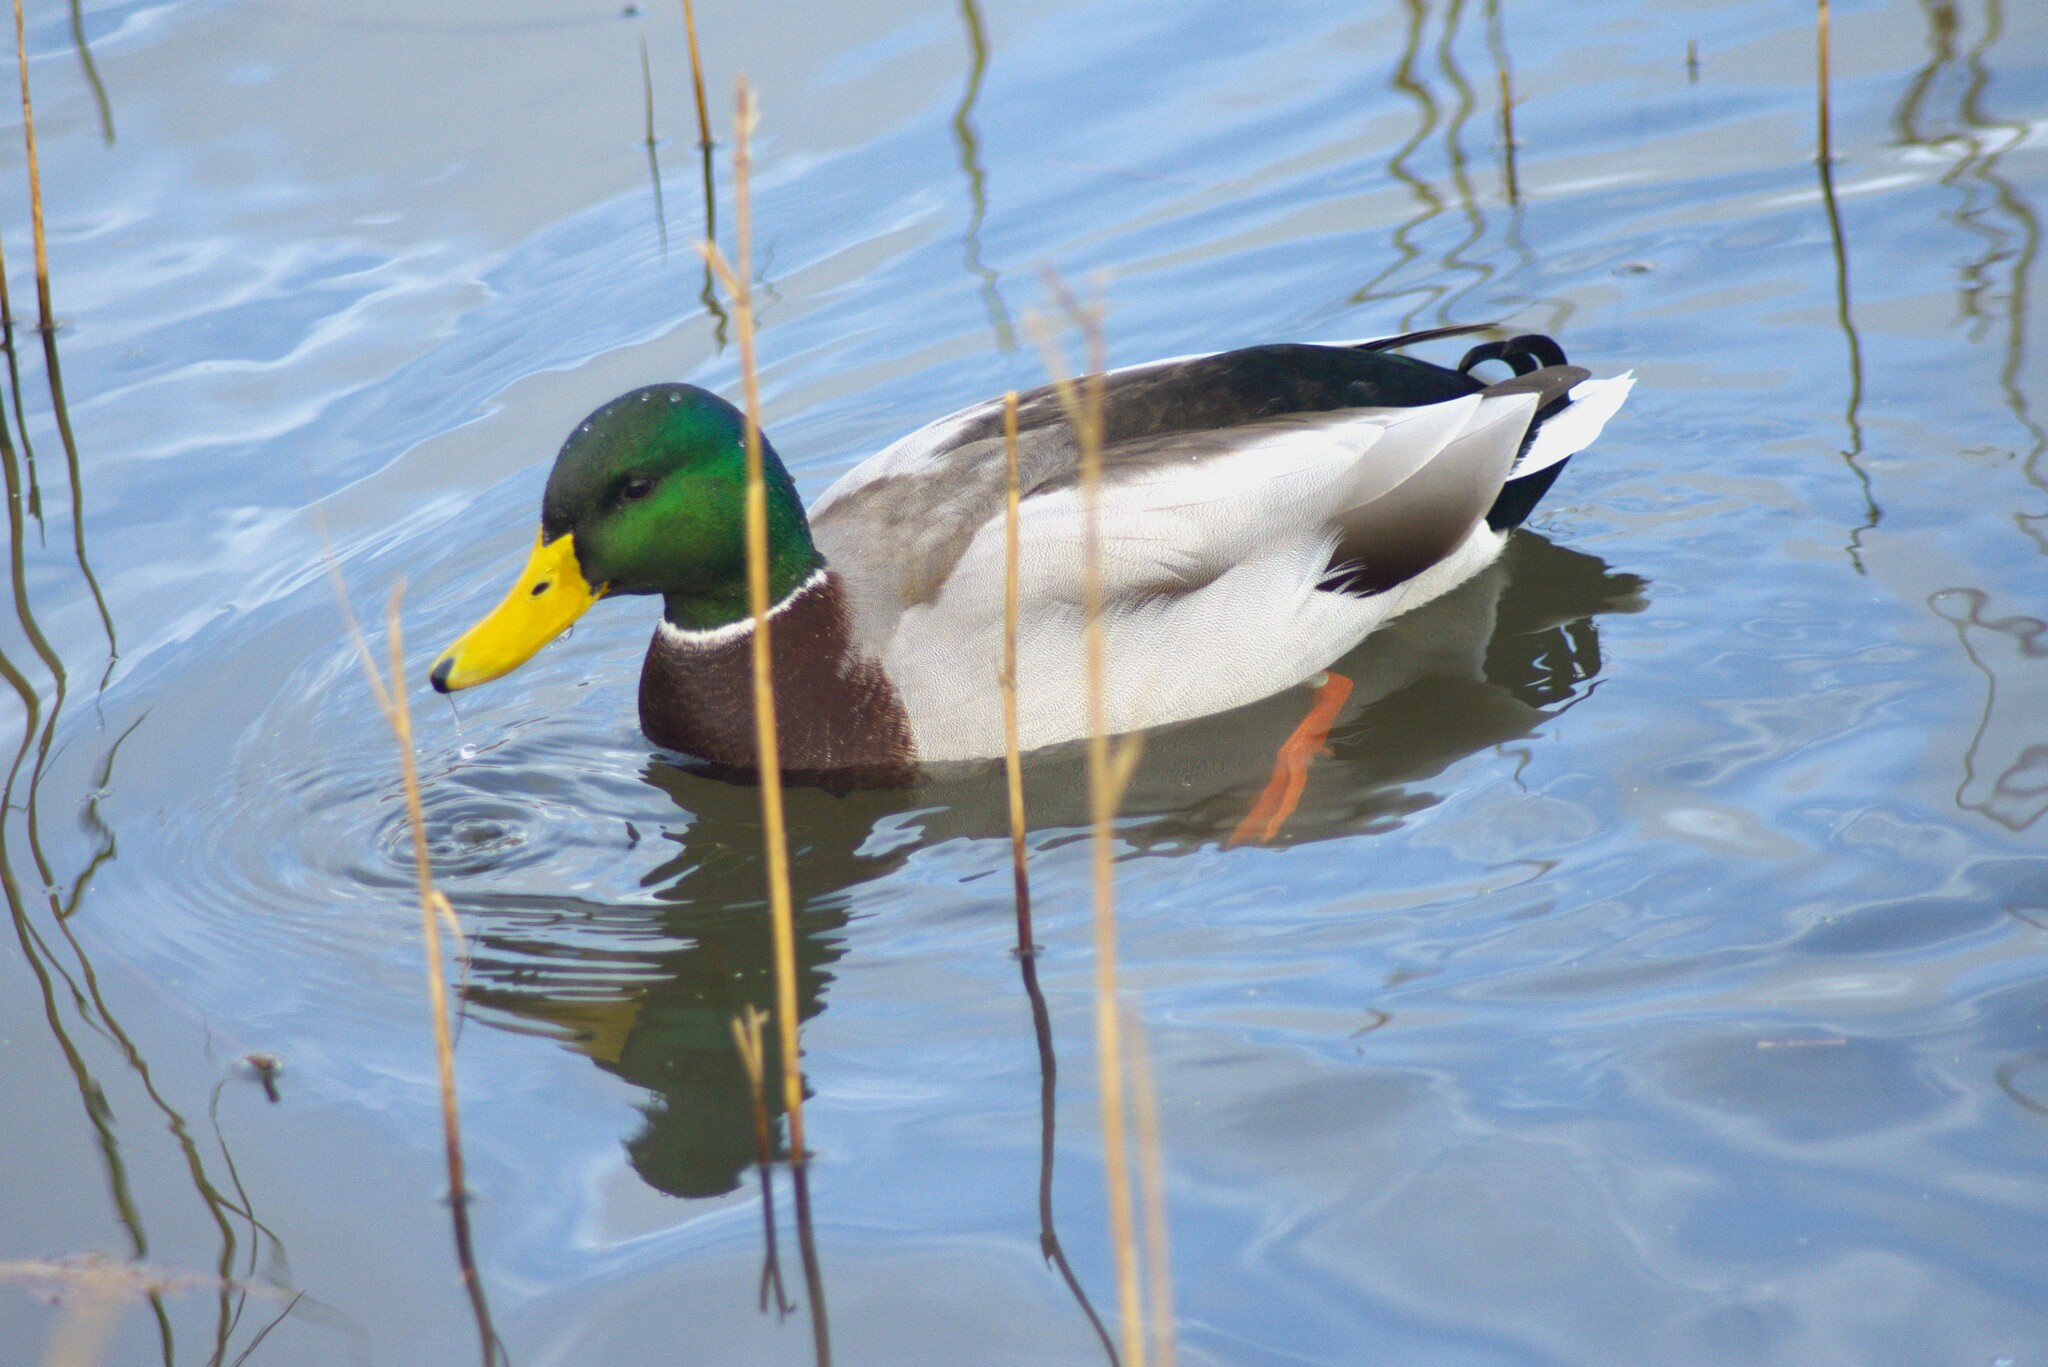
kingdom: Animalia
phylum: Chordata
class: Aves
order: Anseriformes
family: Anatidae
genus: Anas
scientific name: Anas platyrhynchos
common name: Mallard
